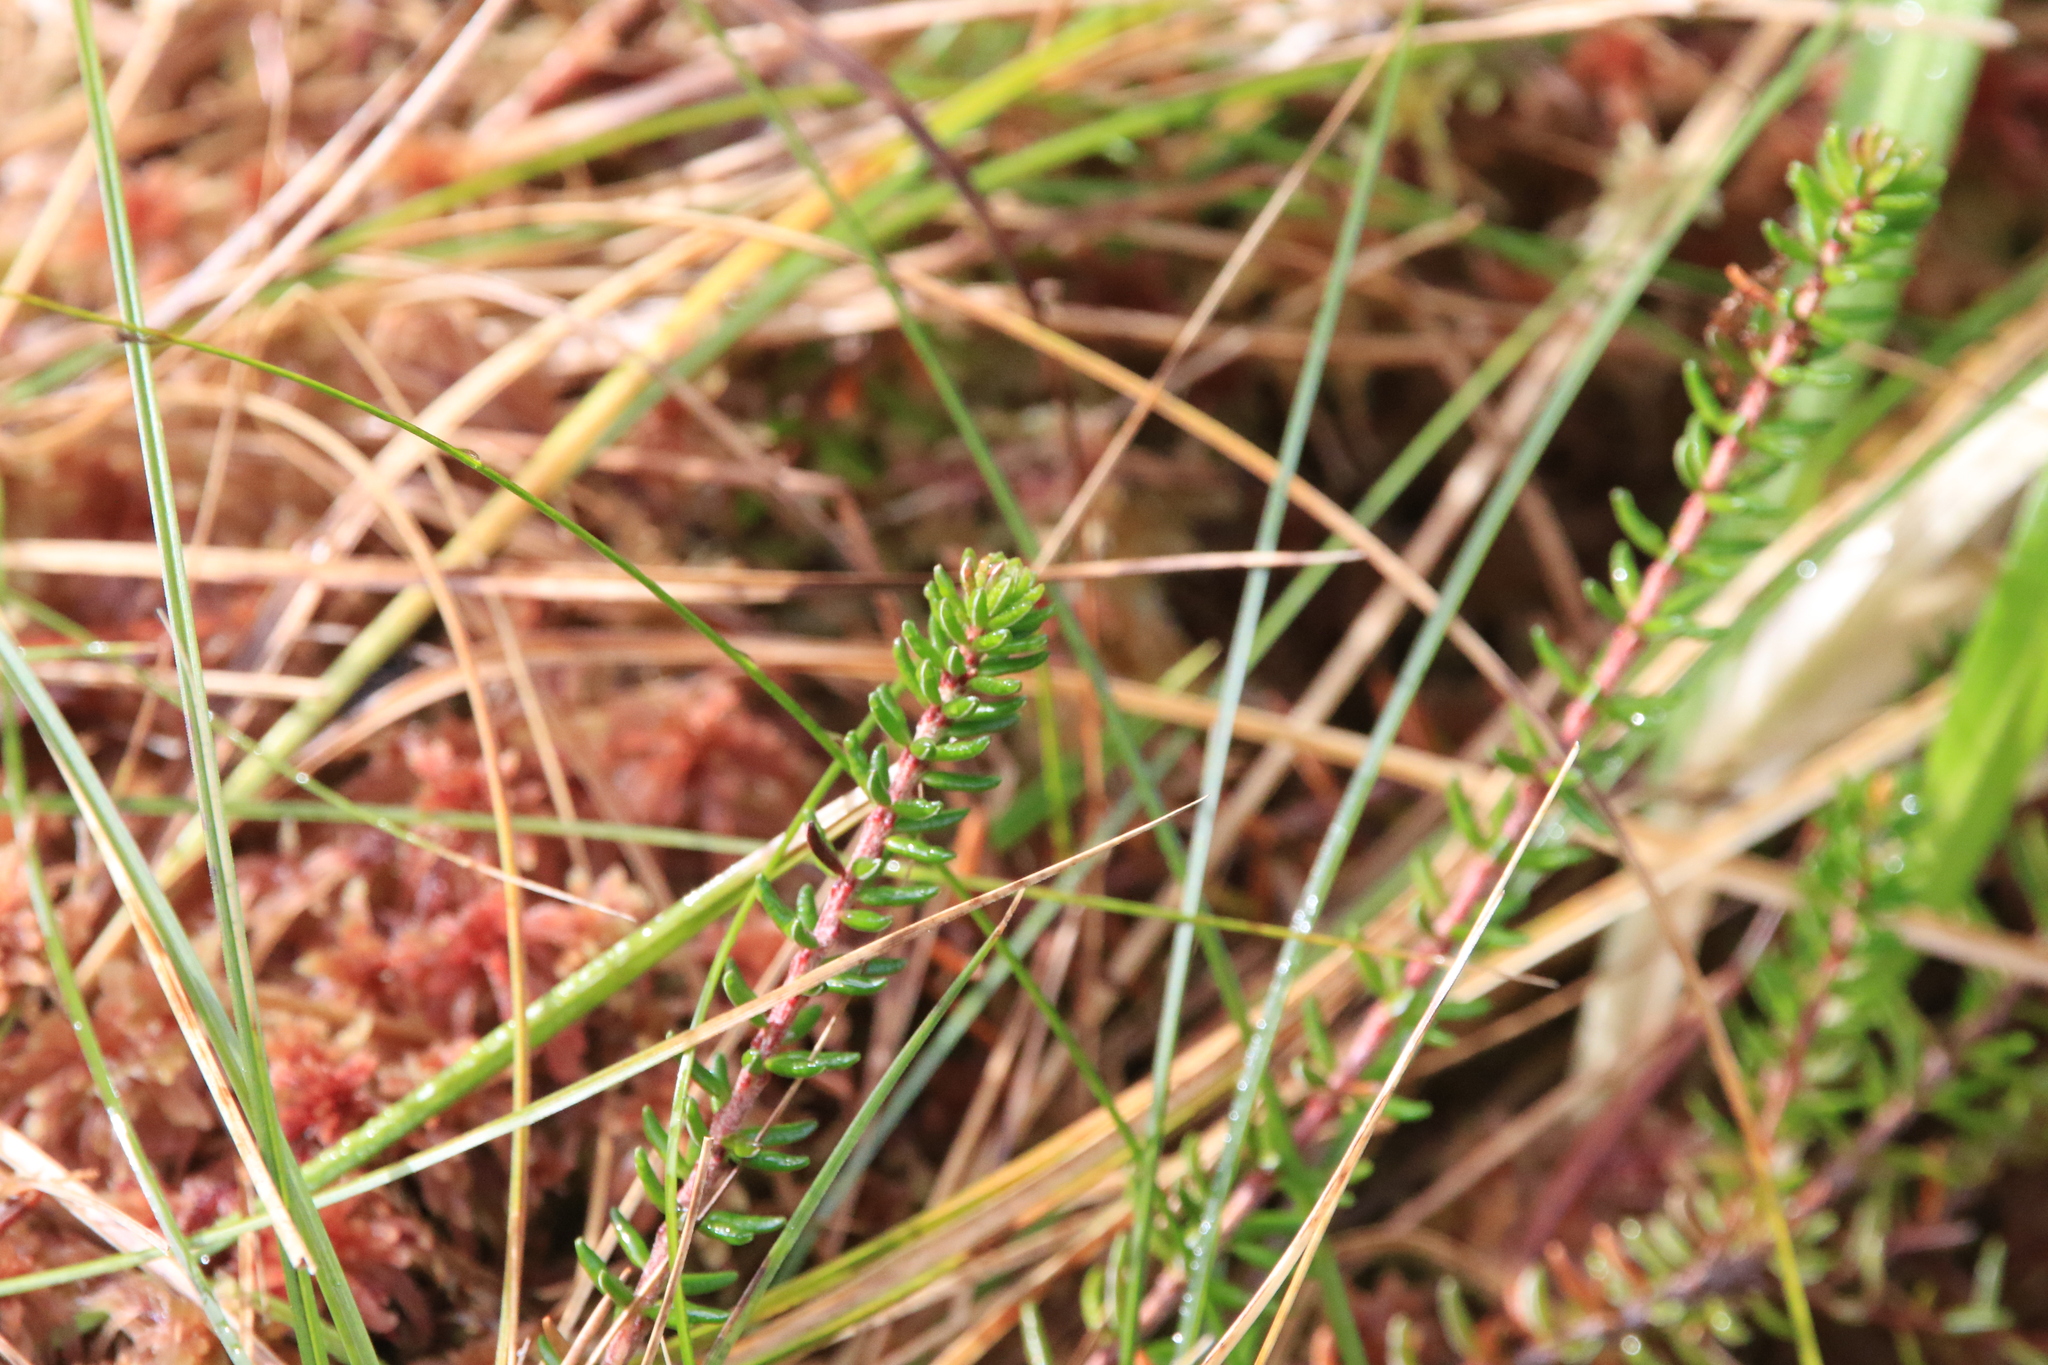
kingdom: Plantae
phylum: Tracheophyta
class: Magnoliopsida
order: Ericales
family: Ericaceae
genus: Empetrum
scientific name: Empetrum nigrum
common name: Black crowberry
